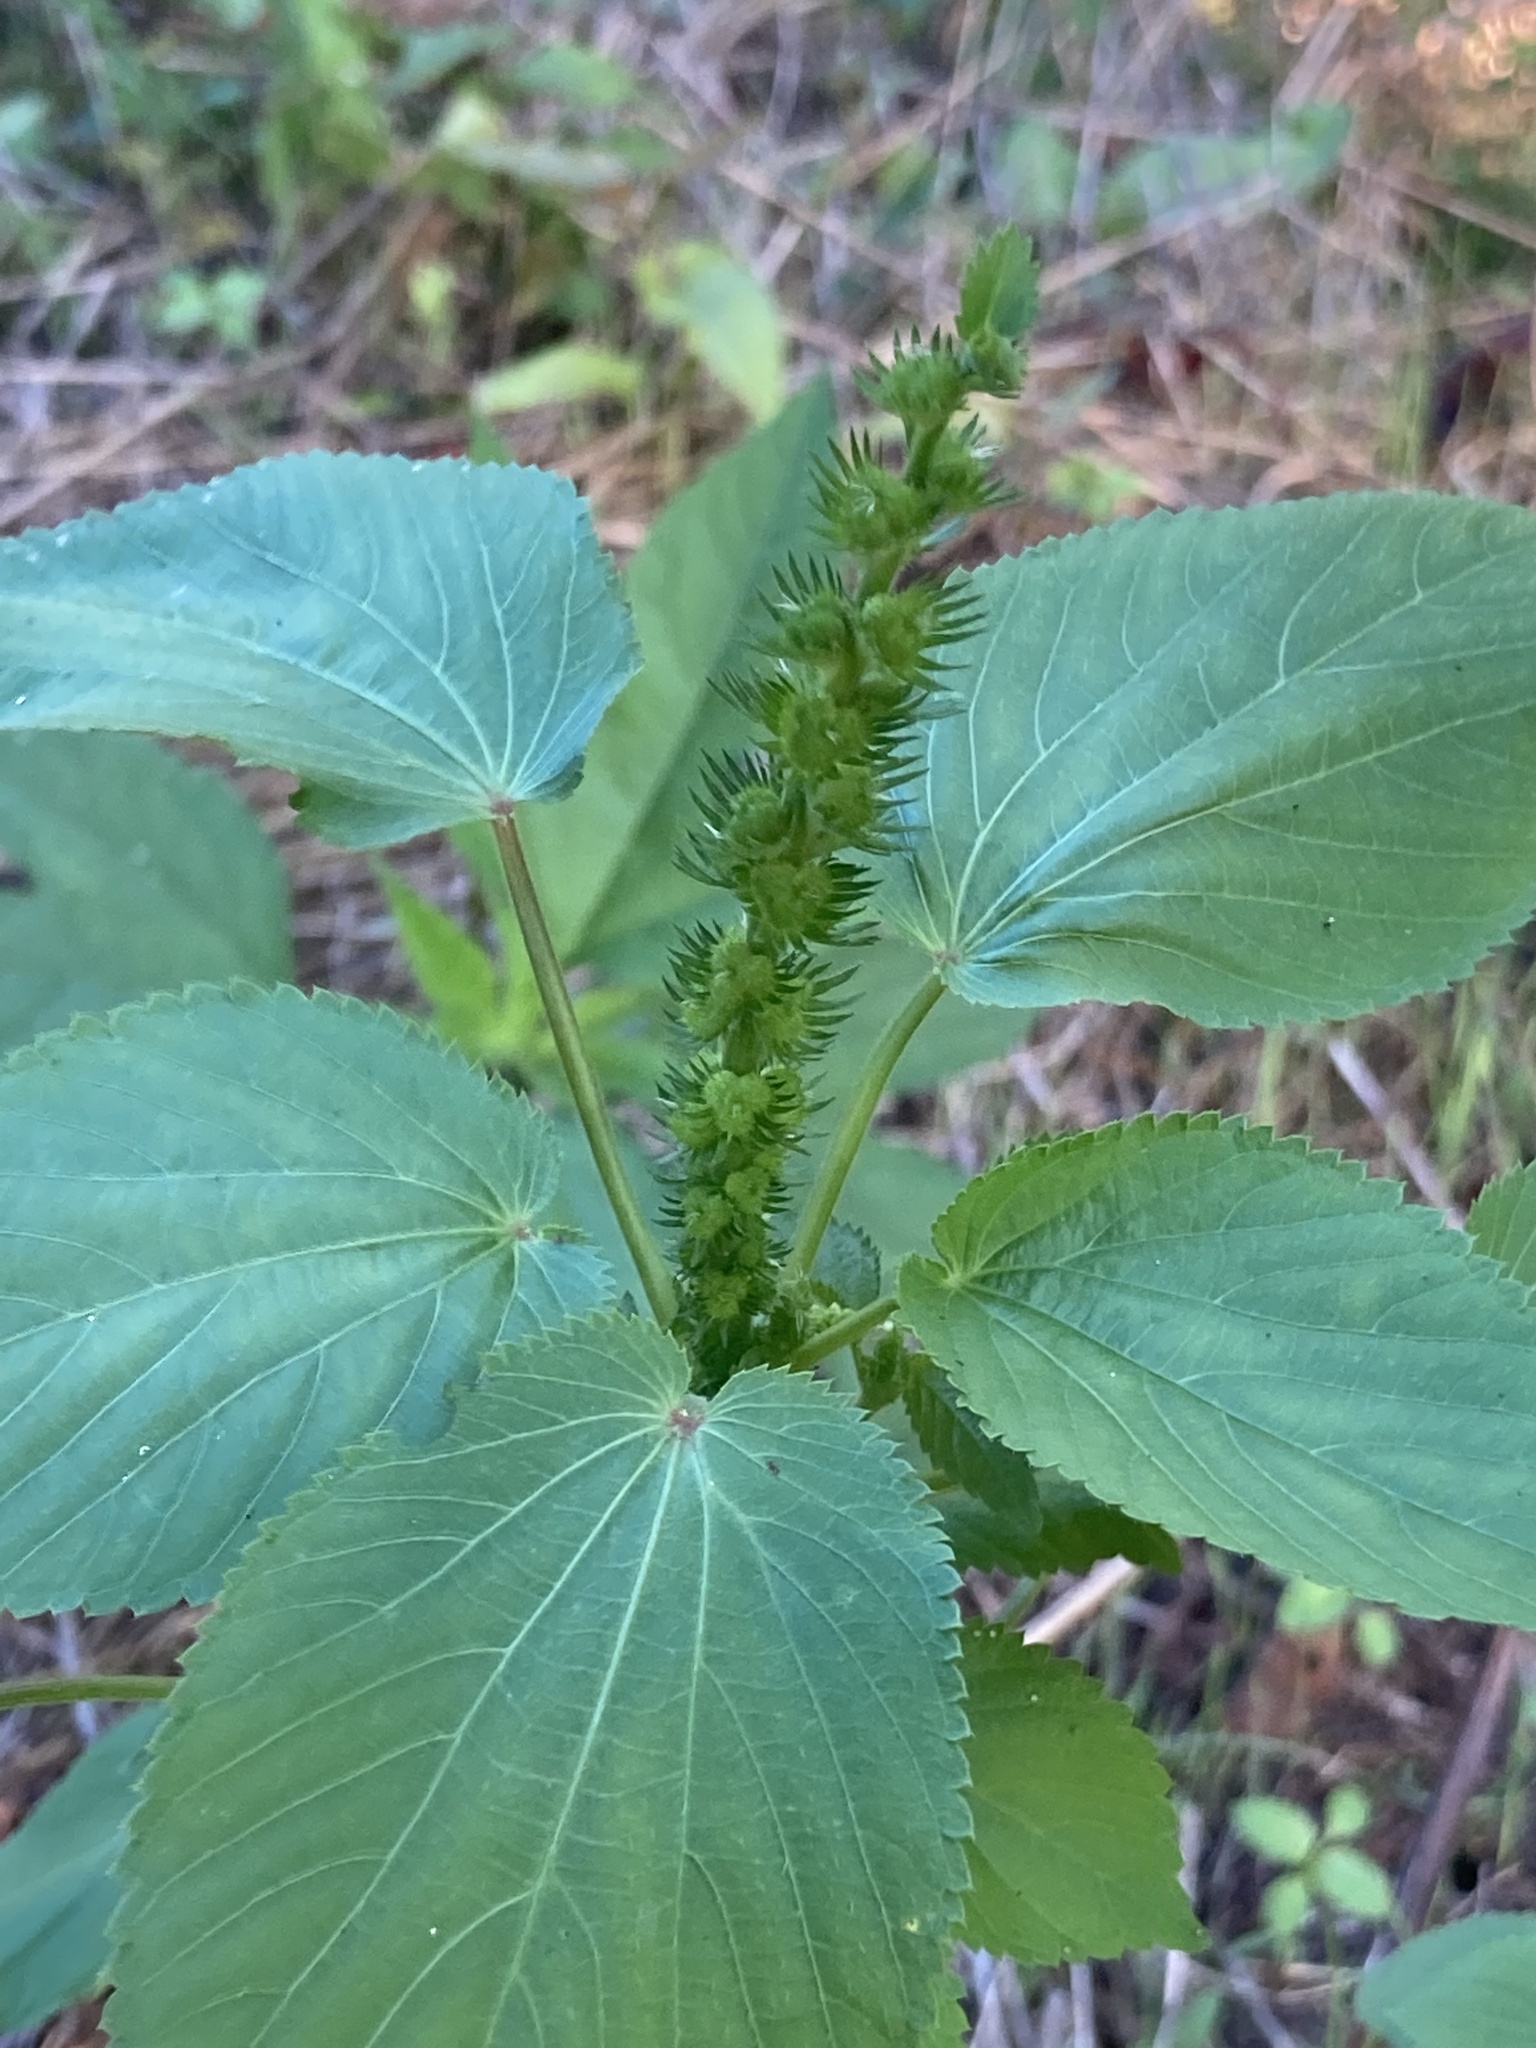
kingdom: Plantae
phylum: Tracheophyta
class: Magnoliopsida
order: Malpighiales
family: Euphorbiaceae
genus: Acalypha
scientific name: Acalypha ostryifolia
